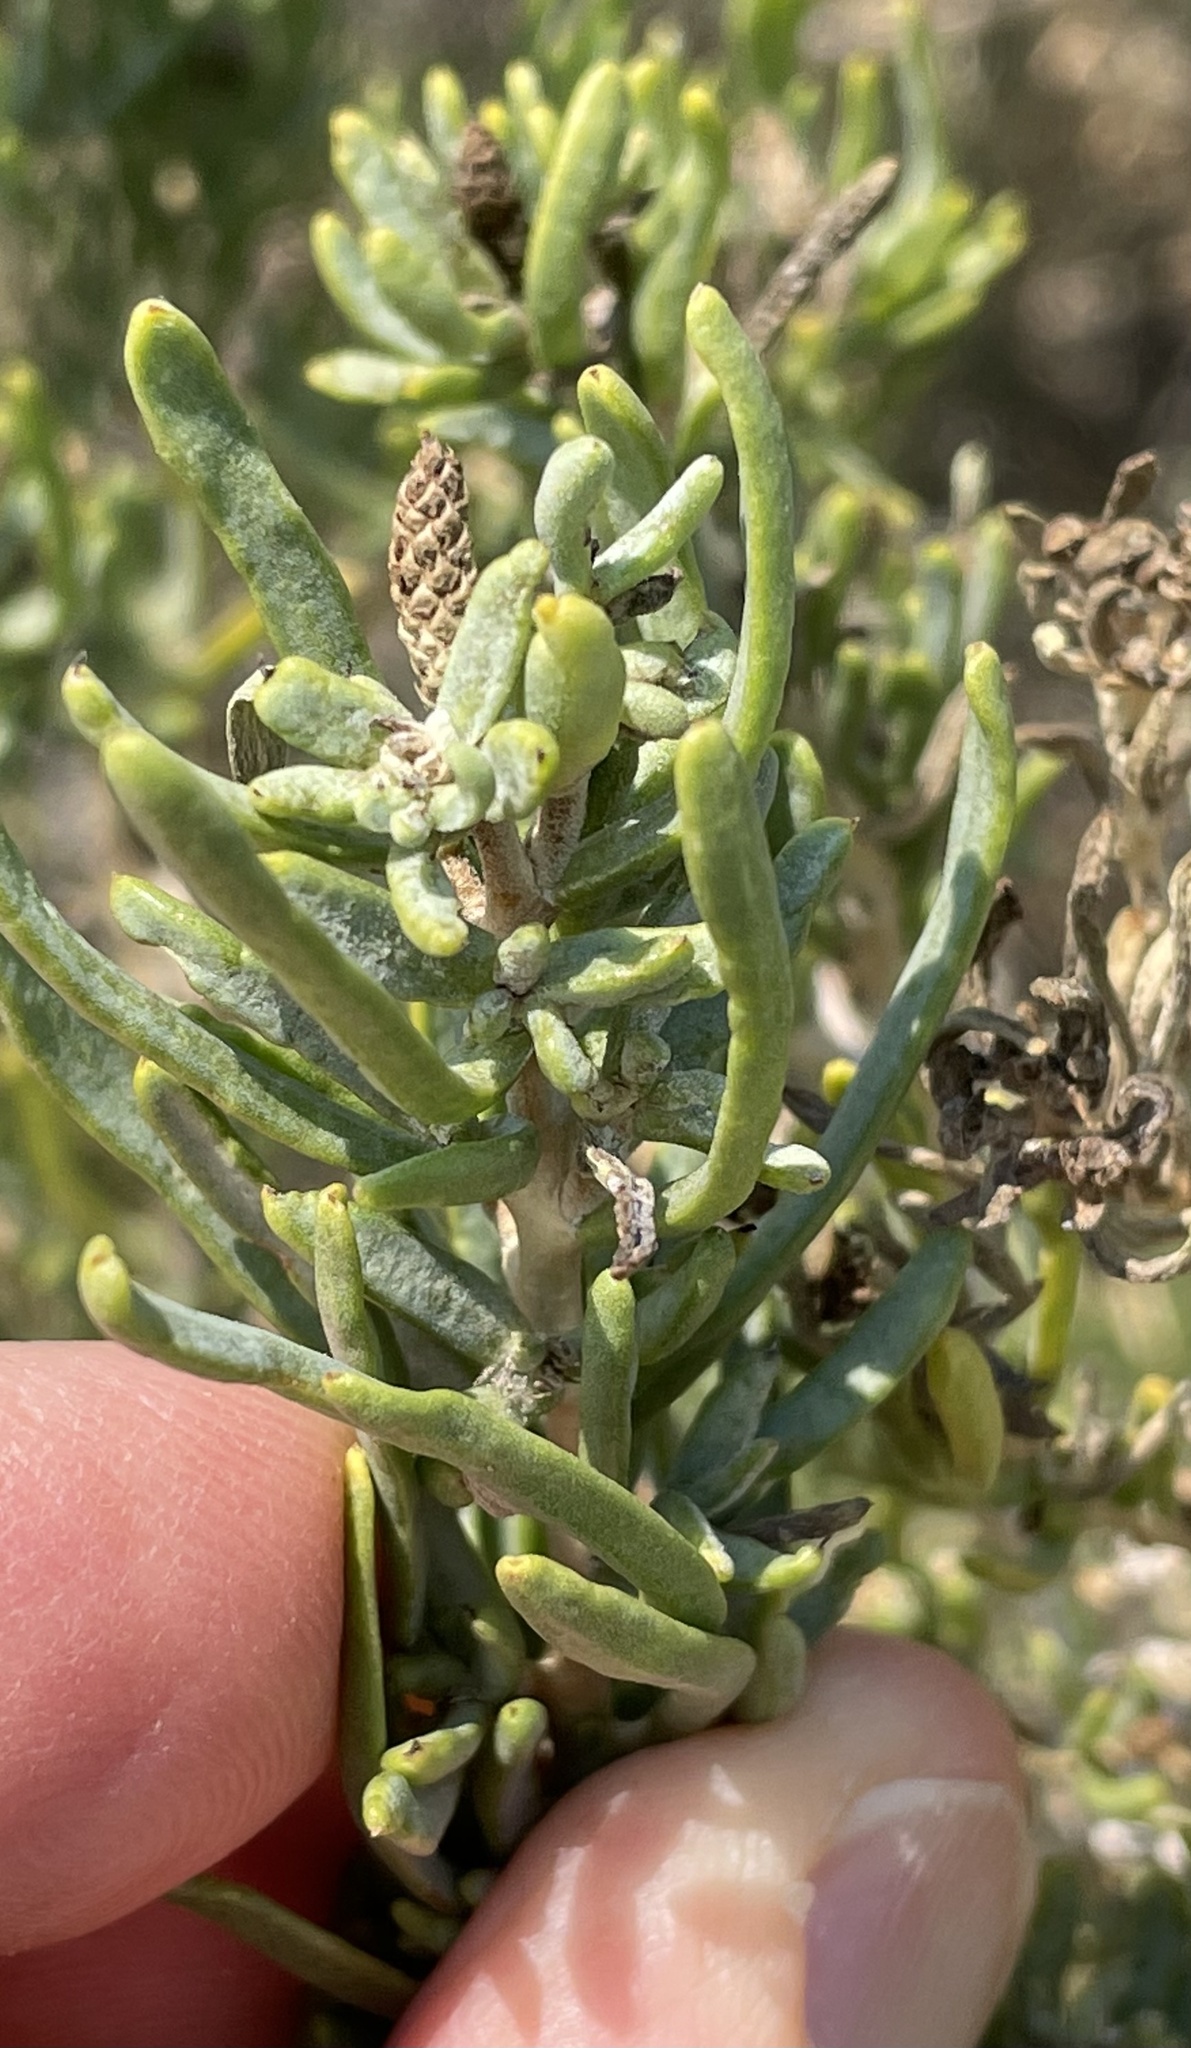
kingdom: Plantae
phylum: Tracheophyta
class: Magnoliopsida
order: Caryophyllales
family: Sarcobataceae
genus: Sarcobatus
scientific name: Sarcobatus vermiculatus
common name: Greasewood
